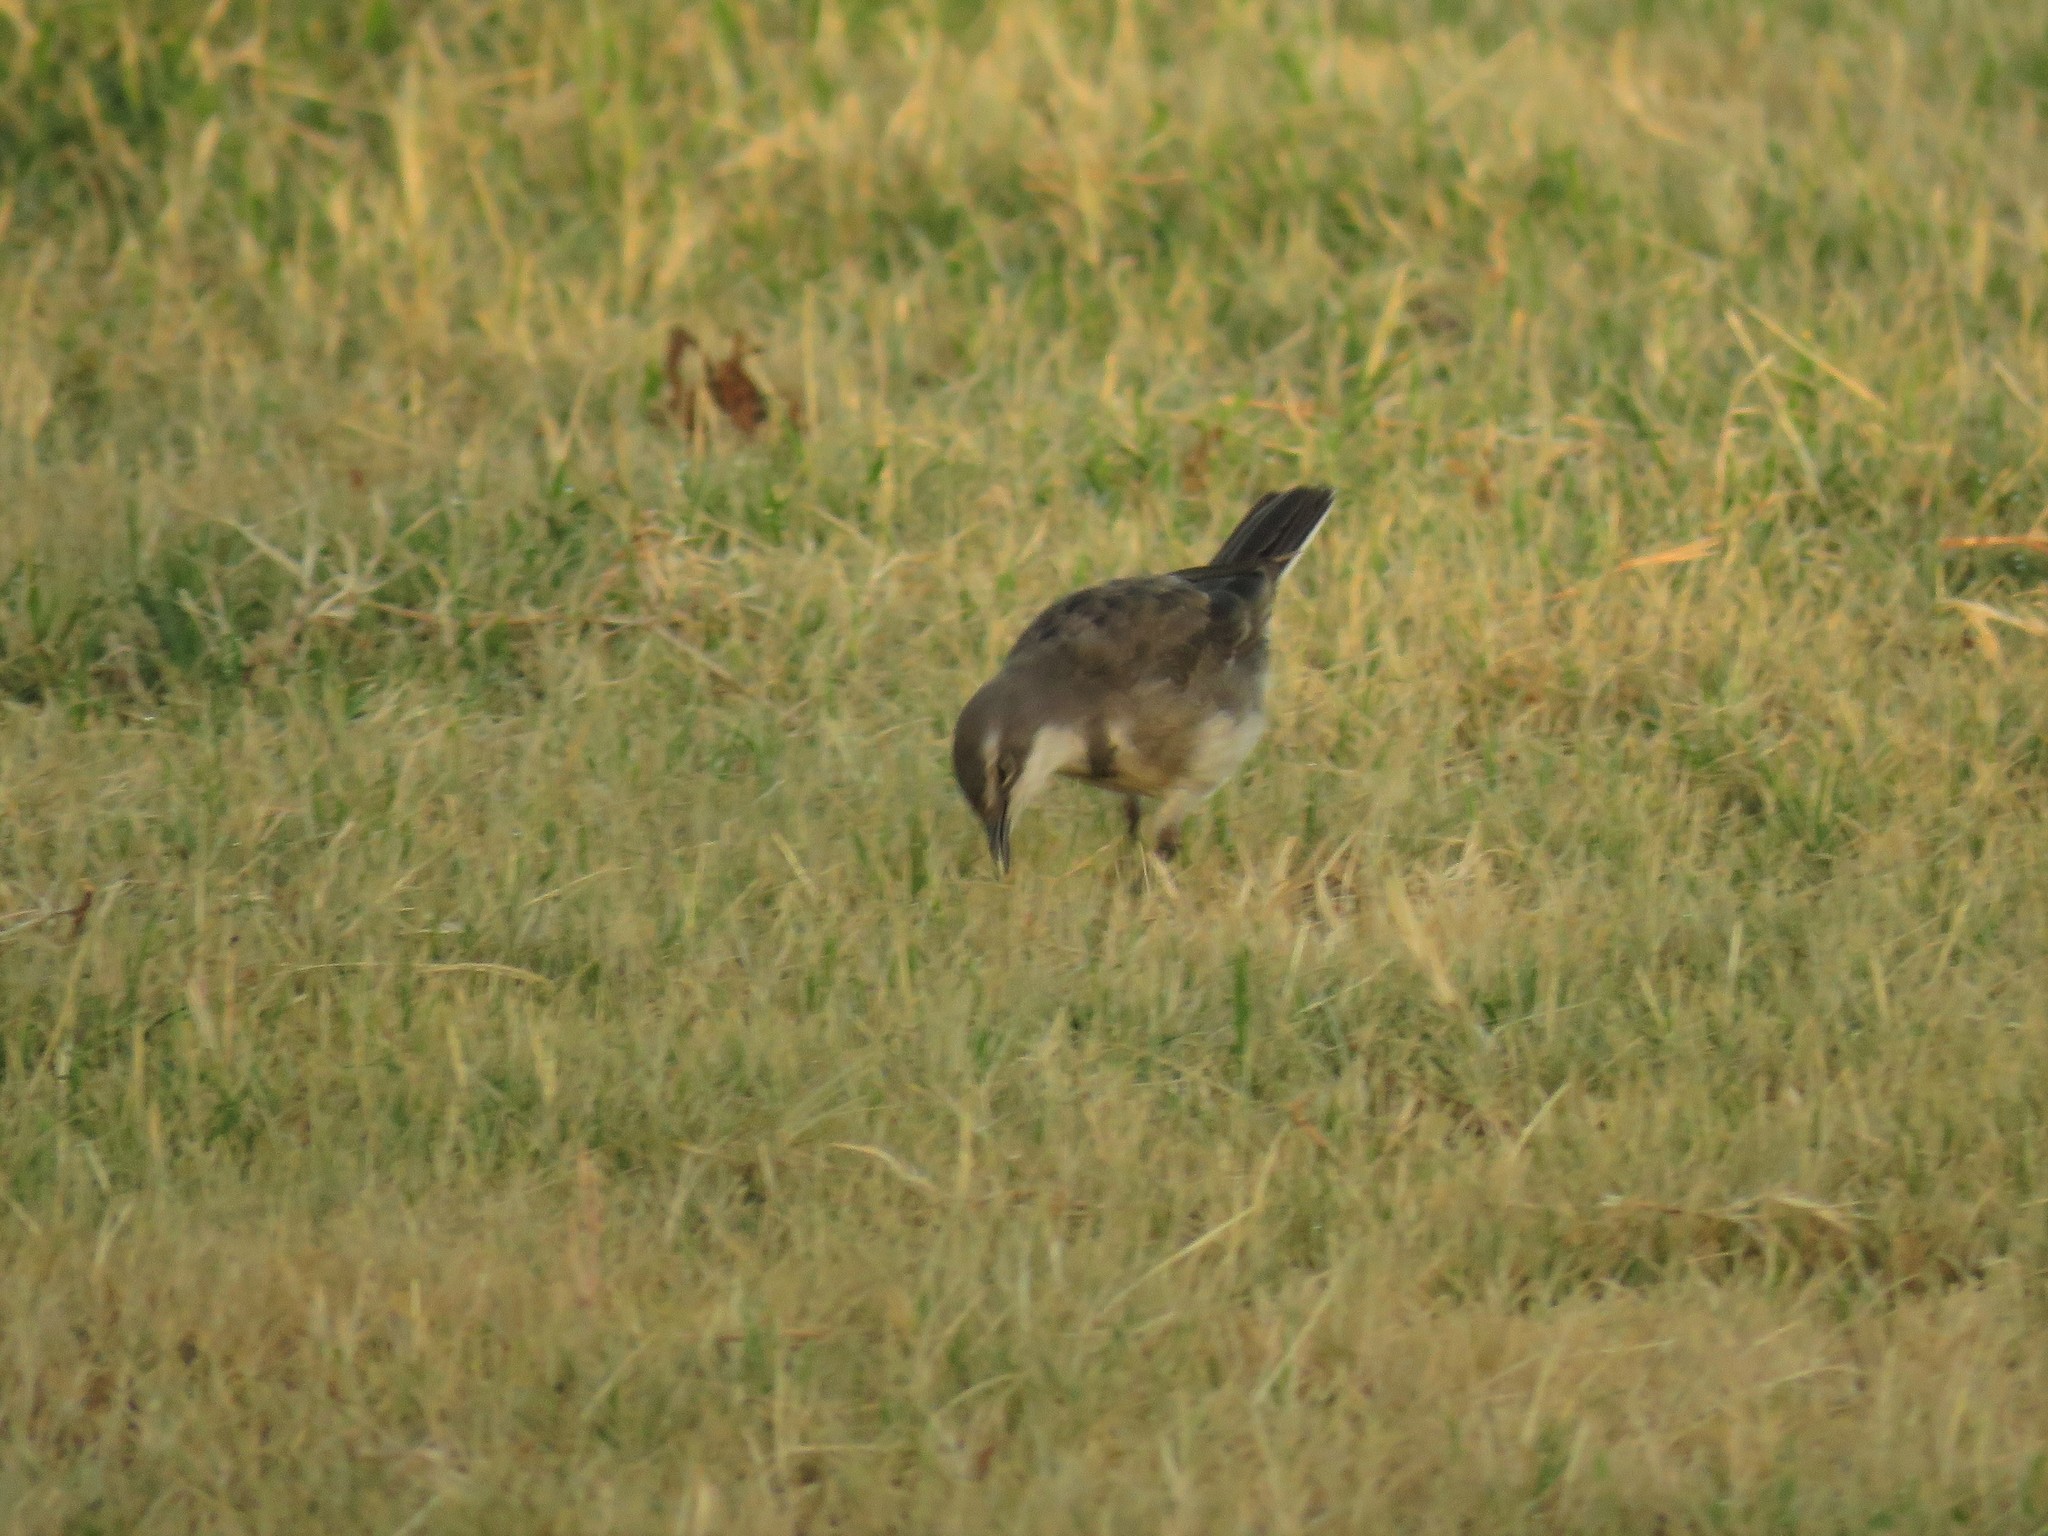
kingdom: Animalia
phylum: Chordata
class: Aves
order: Passeriformes
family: Motacillidae
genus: Motacilla
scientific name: Motacilla capensis
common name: Cape wagtail
